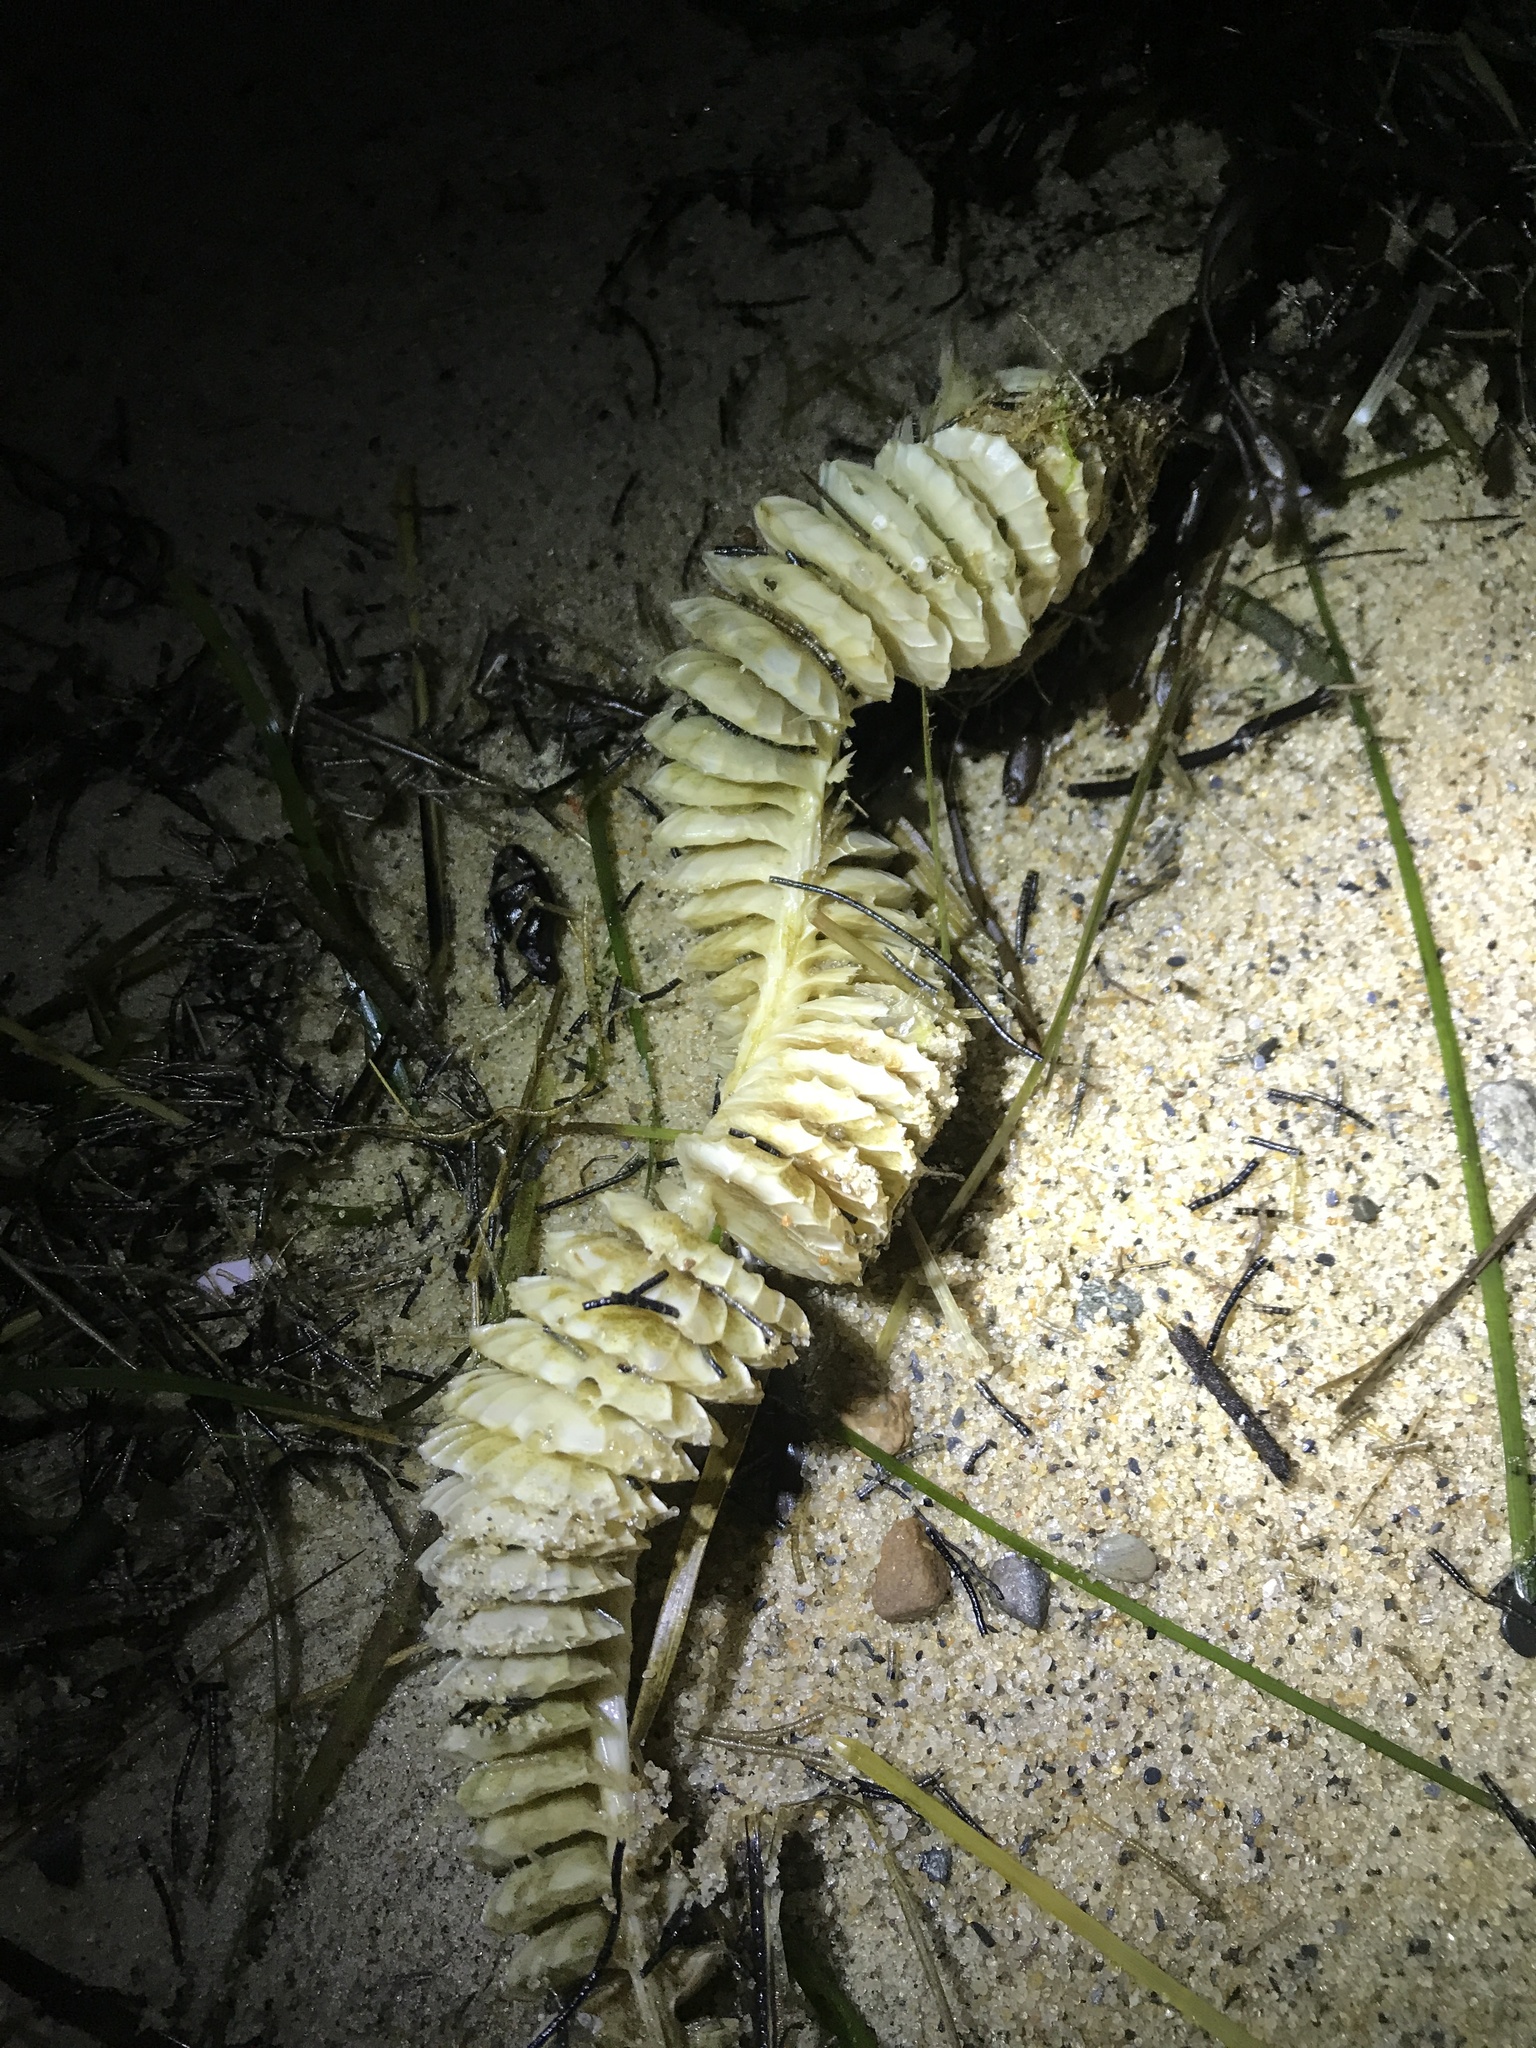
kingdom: Animalia
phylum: Mollusca
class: Gastropoda
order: Neogastropoda
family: Busyconidae
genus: Busycotypus
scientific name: Busycotypus canaliculatus
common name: Channeled whelk
